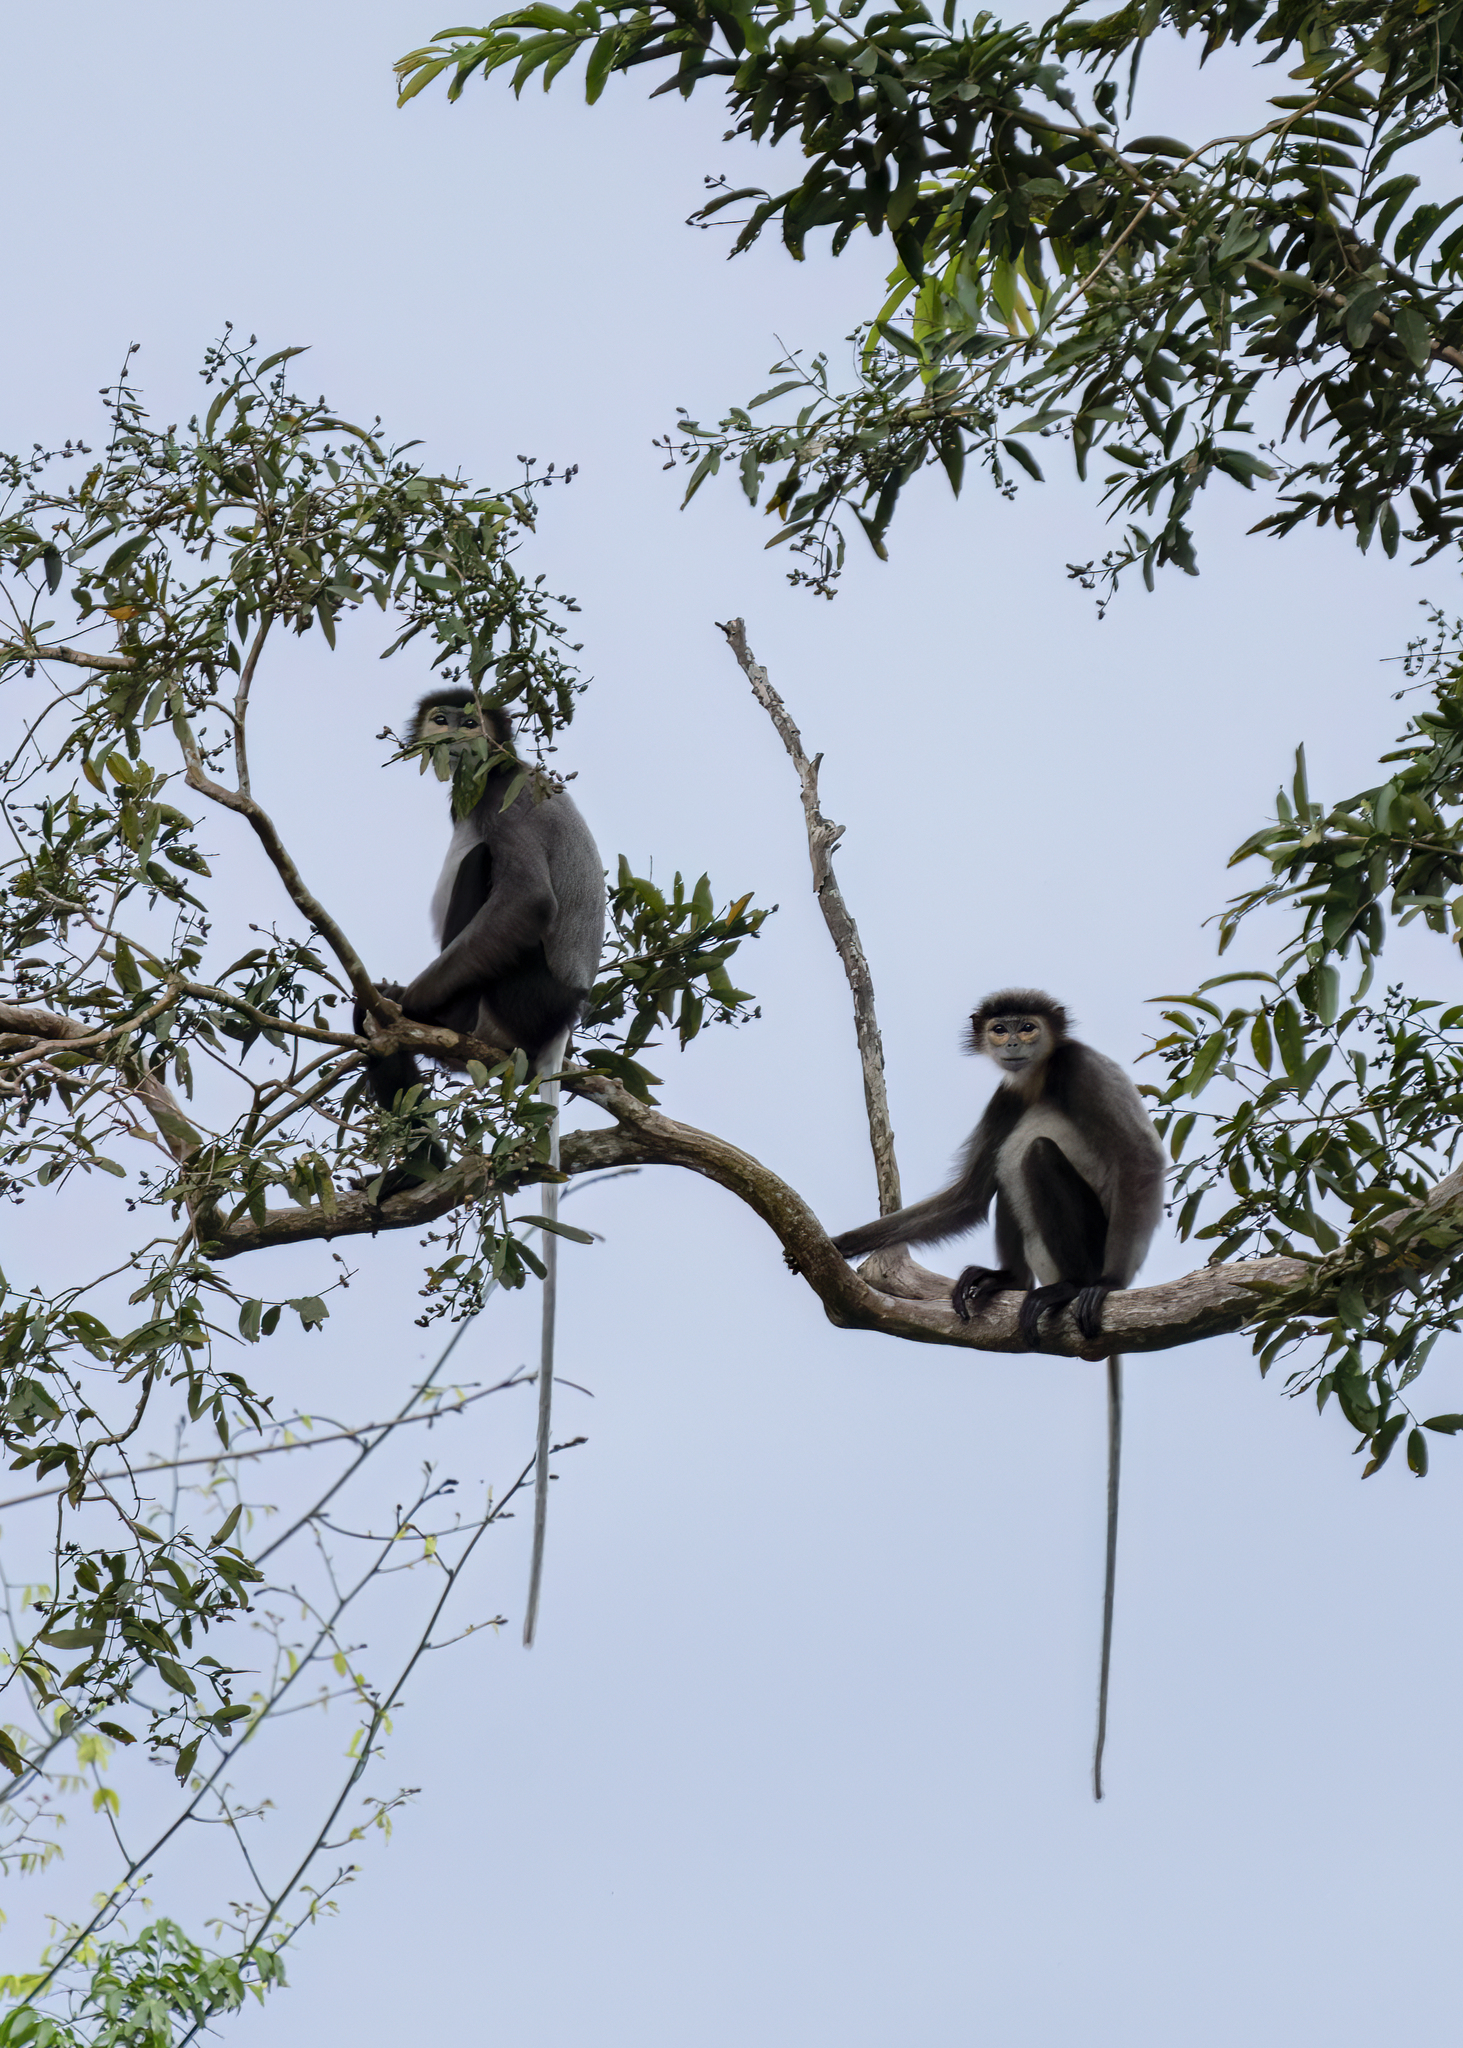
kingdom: Animalia
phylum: Chordata
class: Mammalia
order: Primates
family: Cercopithecidae
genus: Pygathrix
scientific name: Pygathrix nigripes
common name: Black-shanked douc
